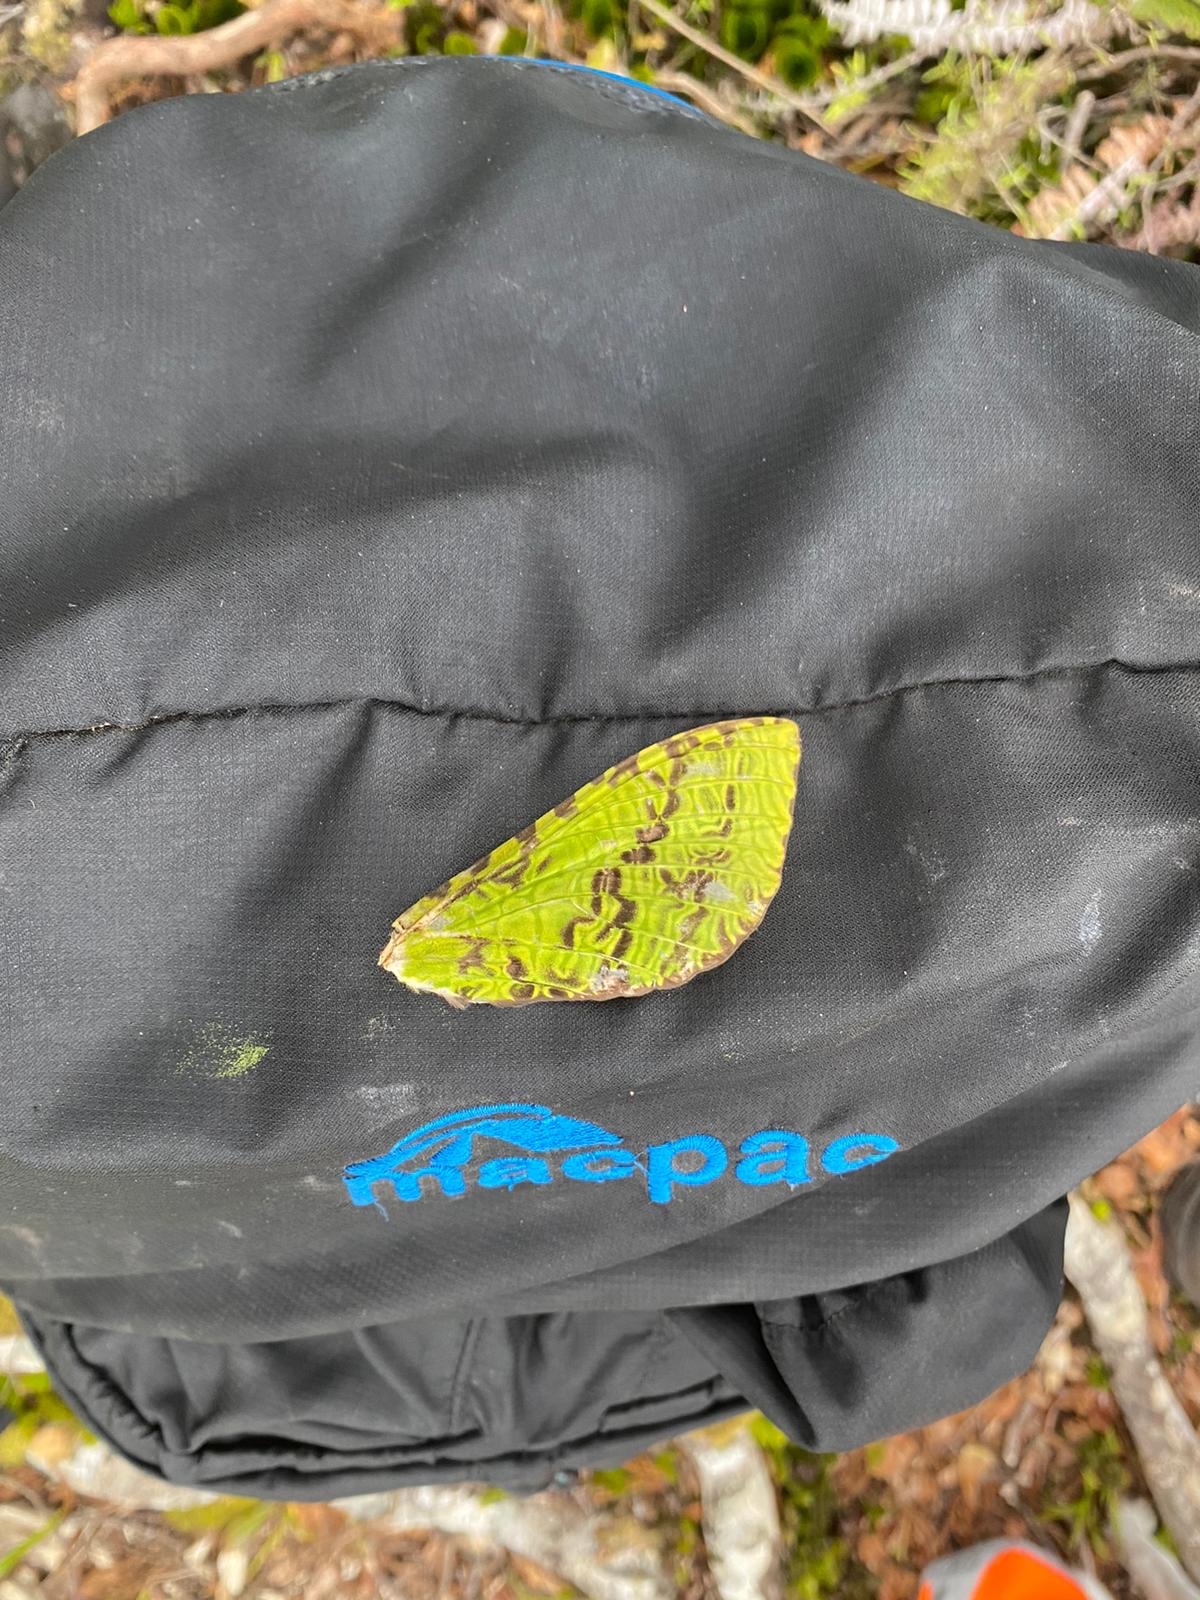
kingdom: Animalia
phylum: Arthropoda
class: Insecta
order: Lepidoptera
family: Hepialidae
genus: Aenetus
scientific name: Aenetus virescens
